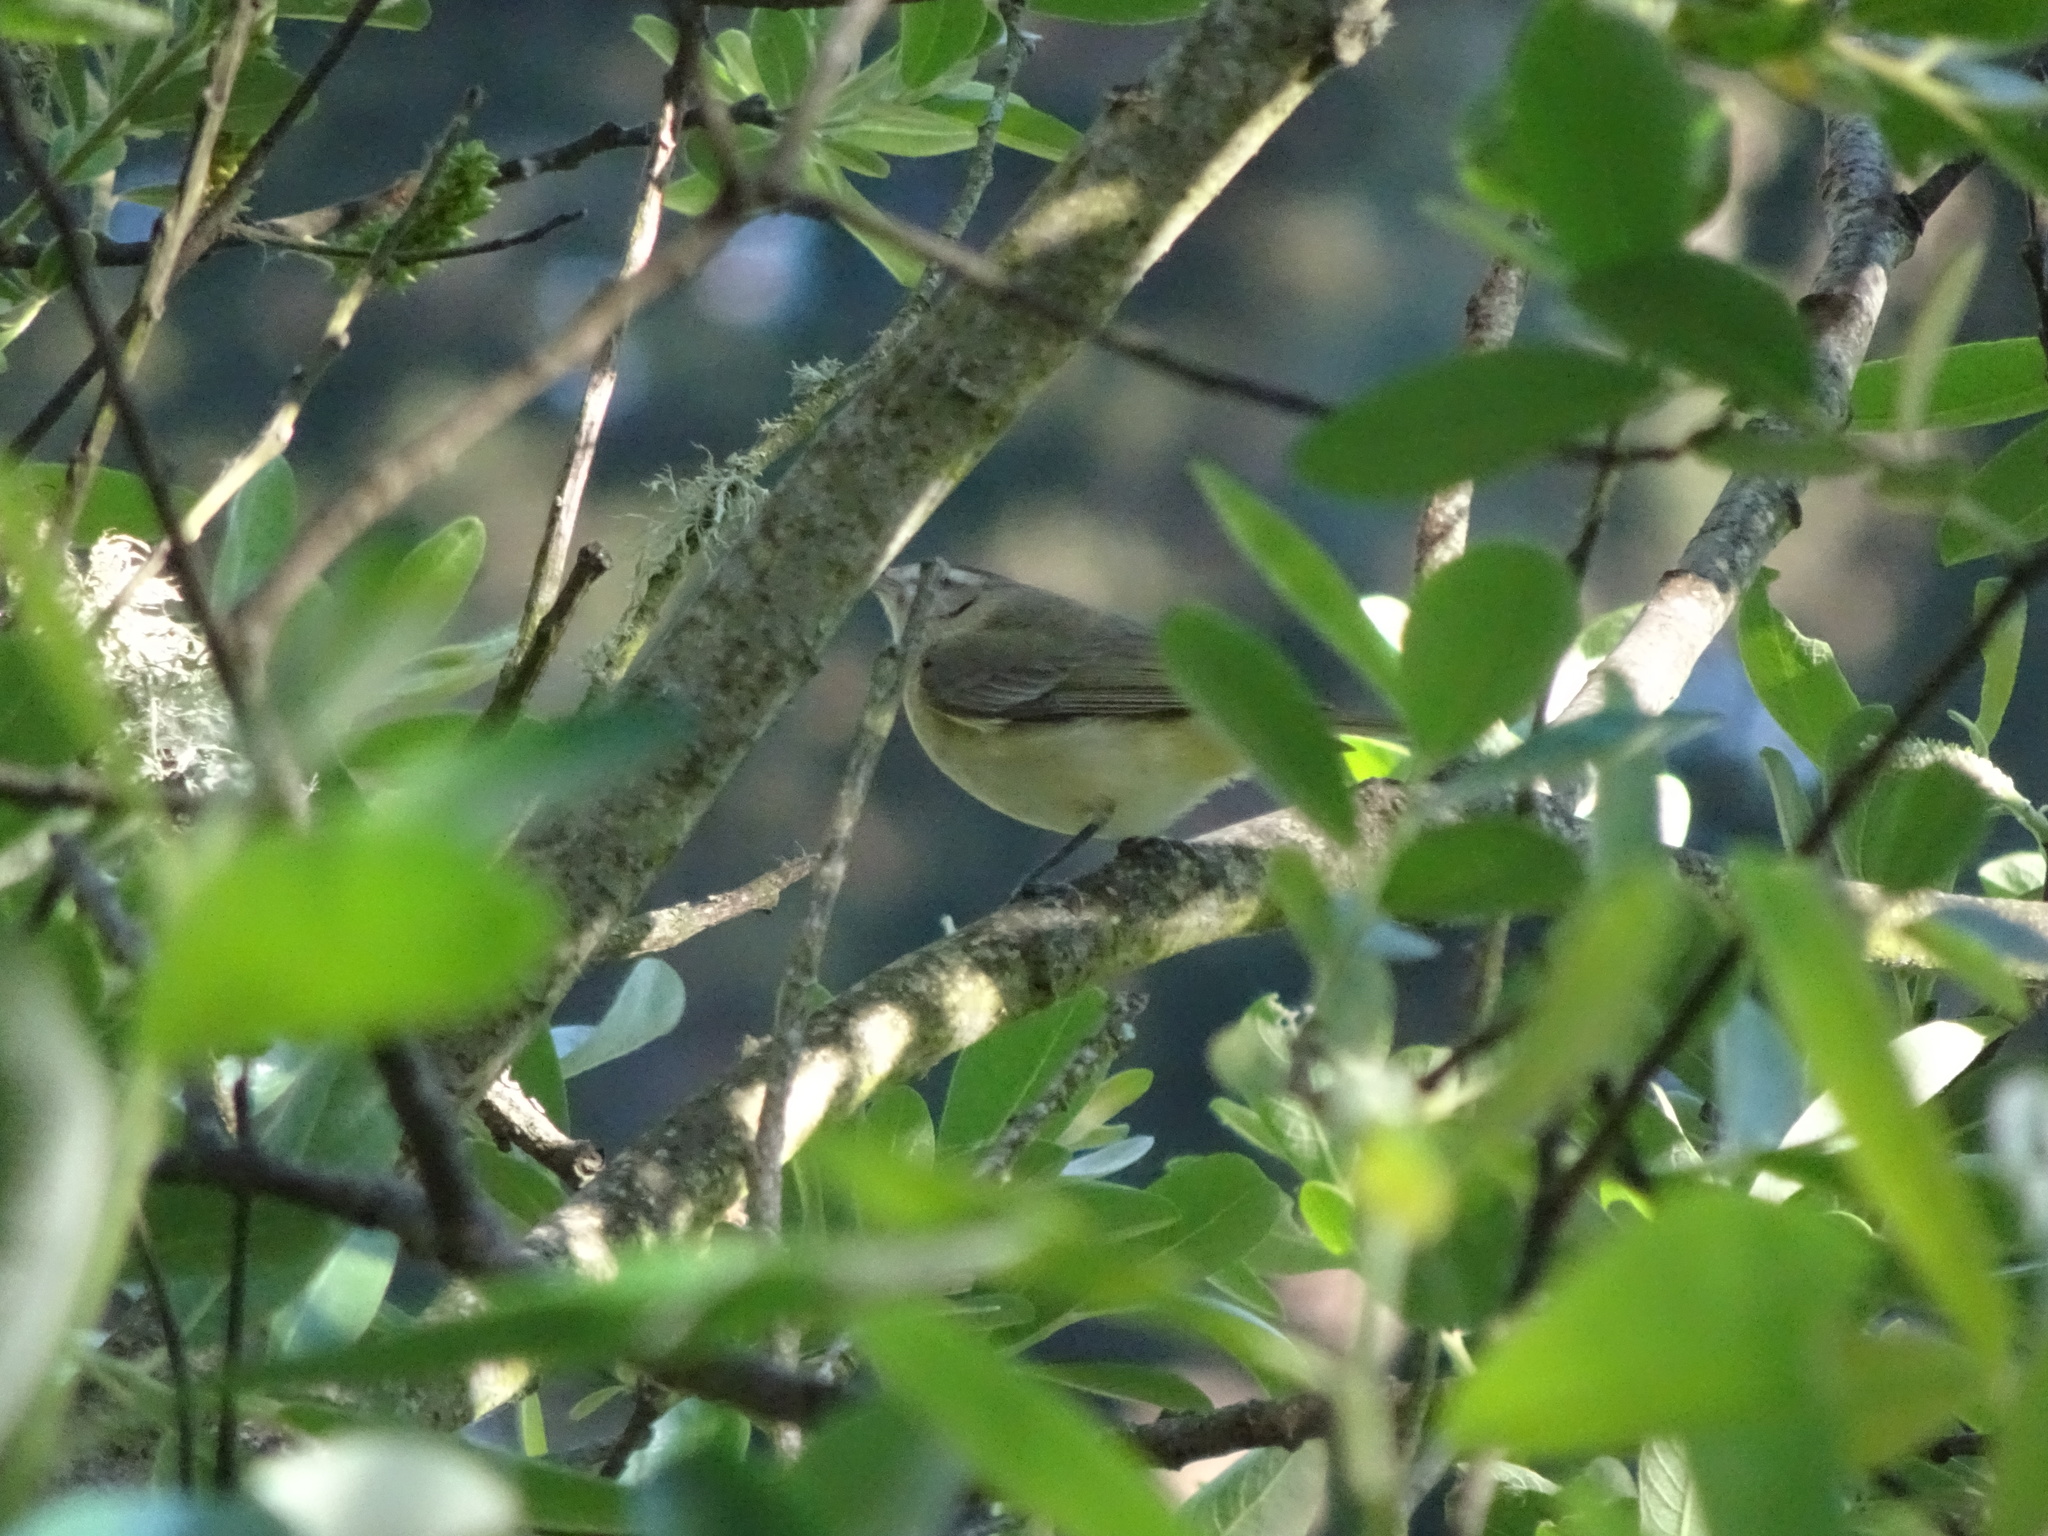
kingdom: Animalia
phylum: Chordata
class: Aves
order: Passeriformes
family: Vireonidae
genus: Vireo
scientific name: Vireo gilvus
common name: Warbling vireo
